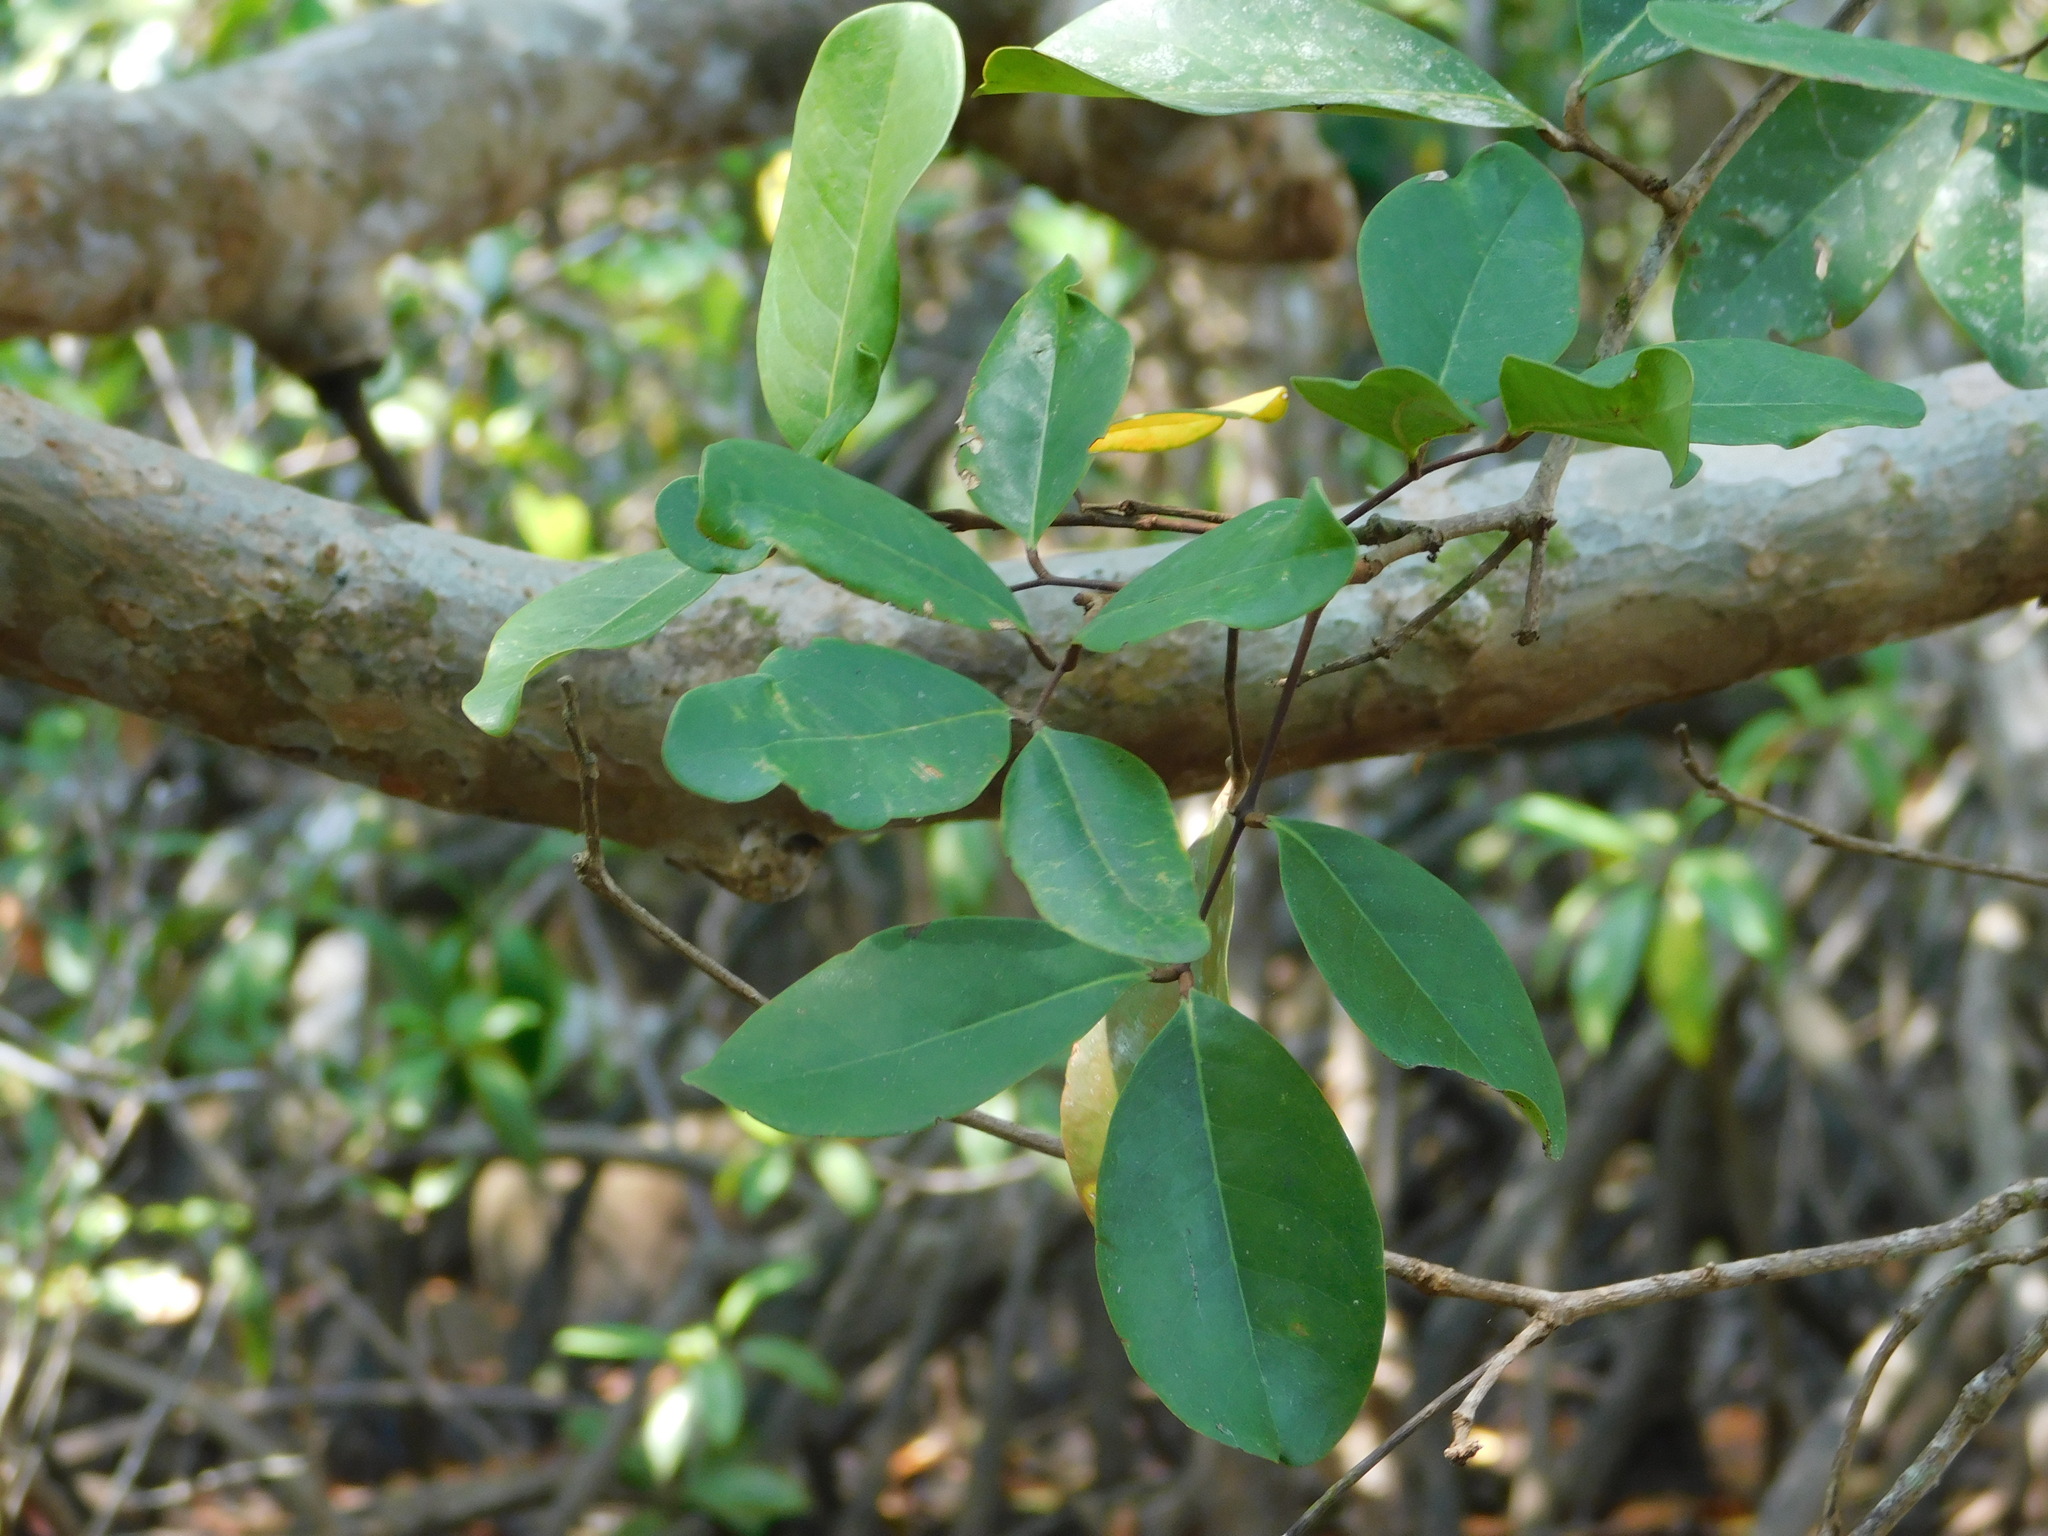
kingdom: Plantae
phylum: Tracheophyta
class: Magnoliopsida
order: Sapindales
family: Meliaceae
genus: Xylocarpus
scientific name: Xylocarpus granatum
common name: Apple mangrove
